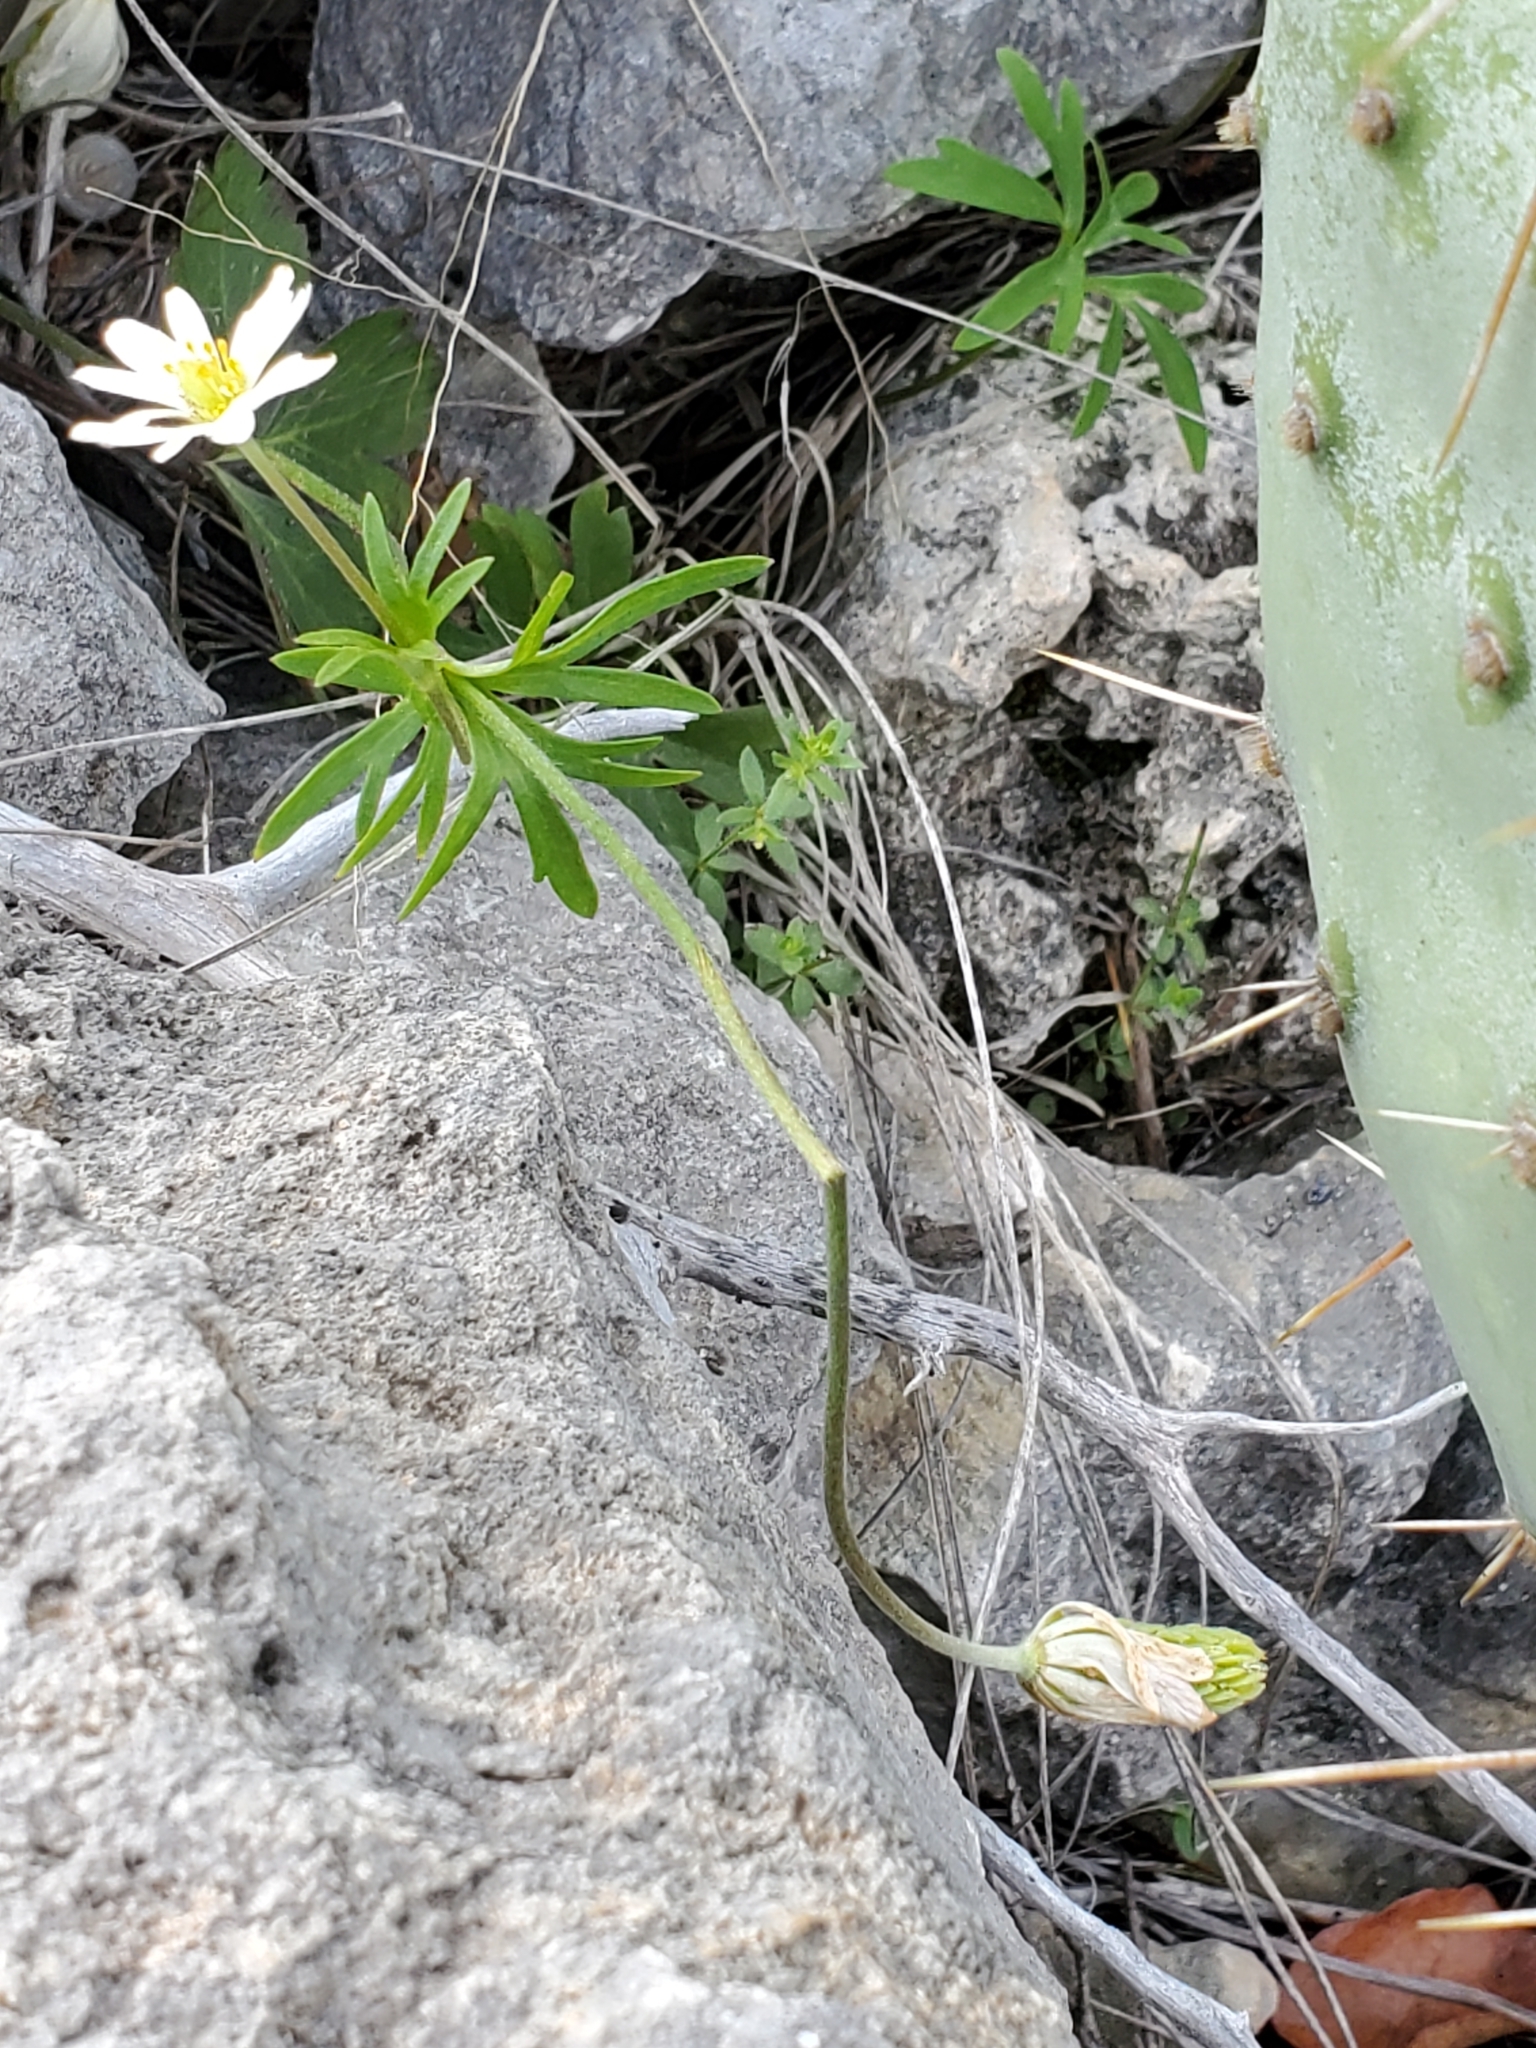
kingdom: Plantae
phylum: Tracheophyta
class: Magnoliopsida
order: Ranunculales
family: Ranunculaceae
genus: Anemone
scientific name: Anemone edwardsiana
